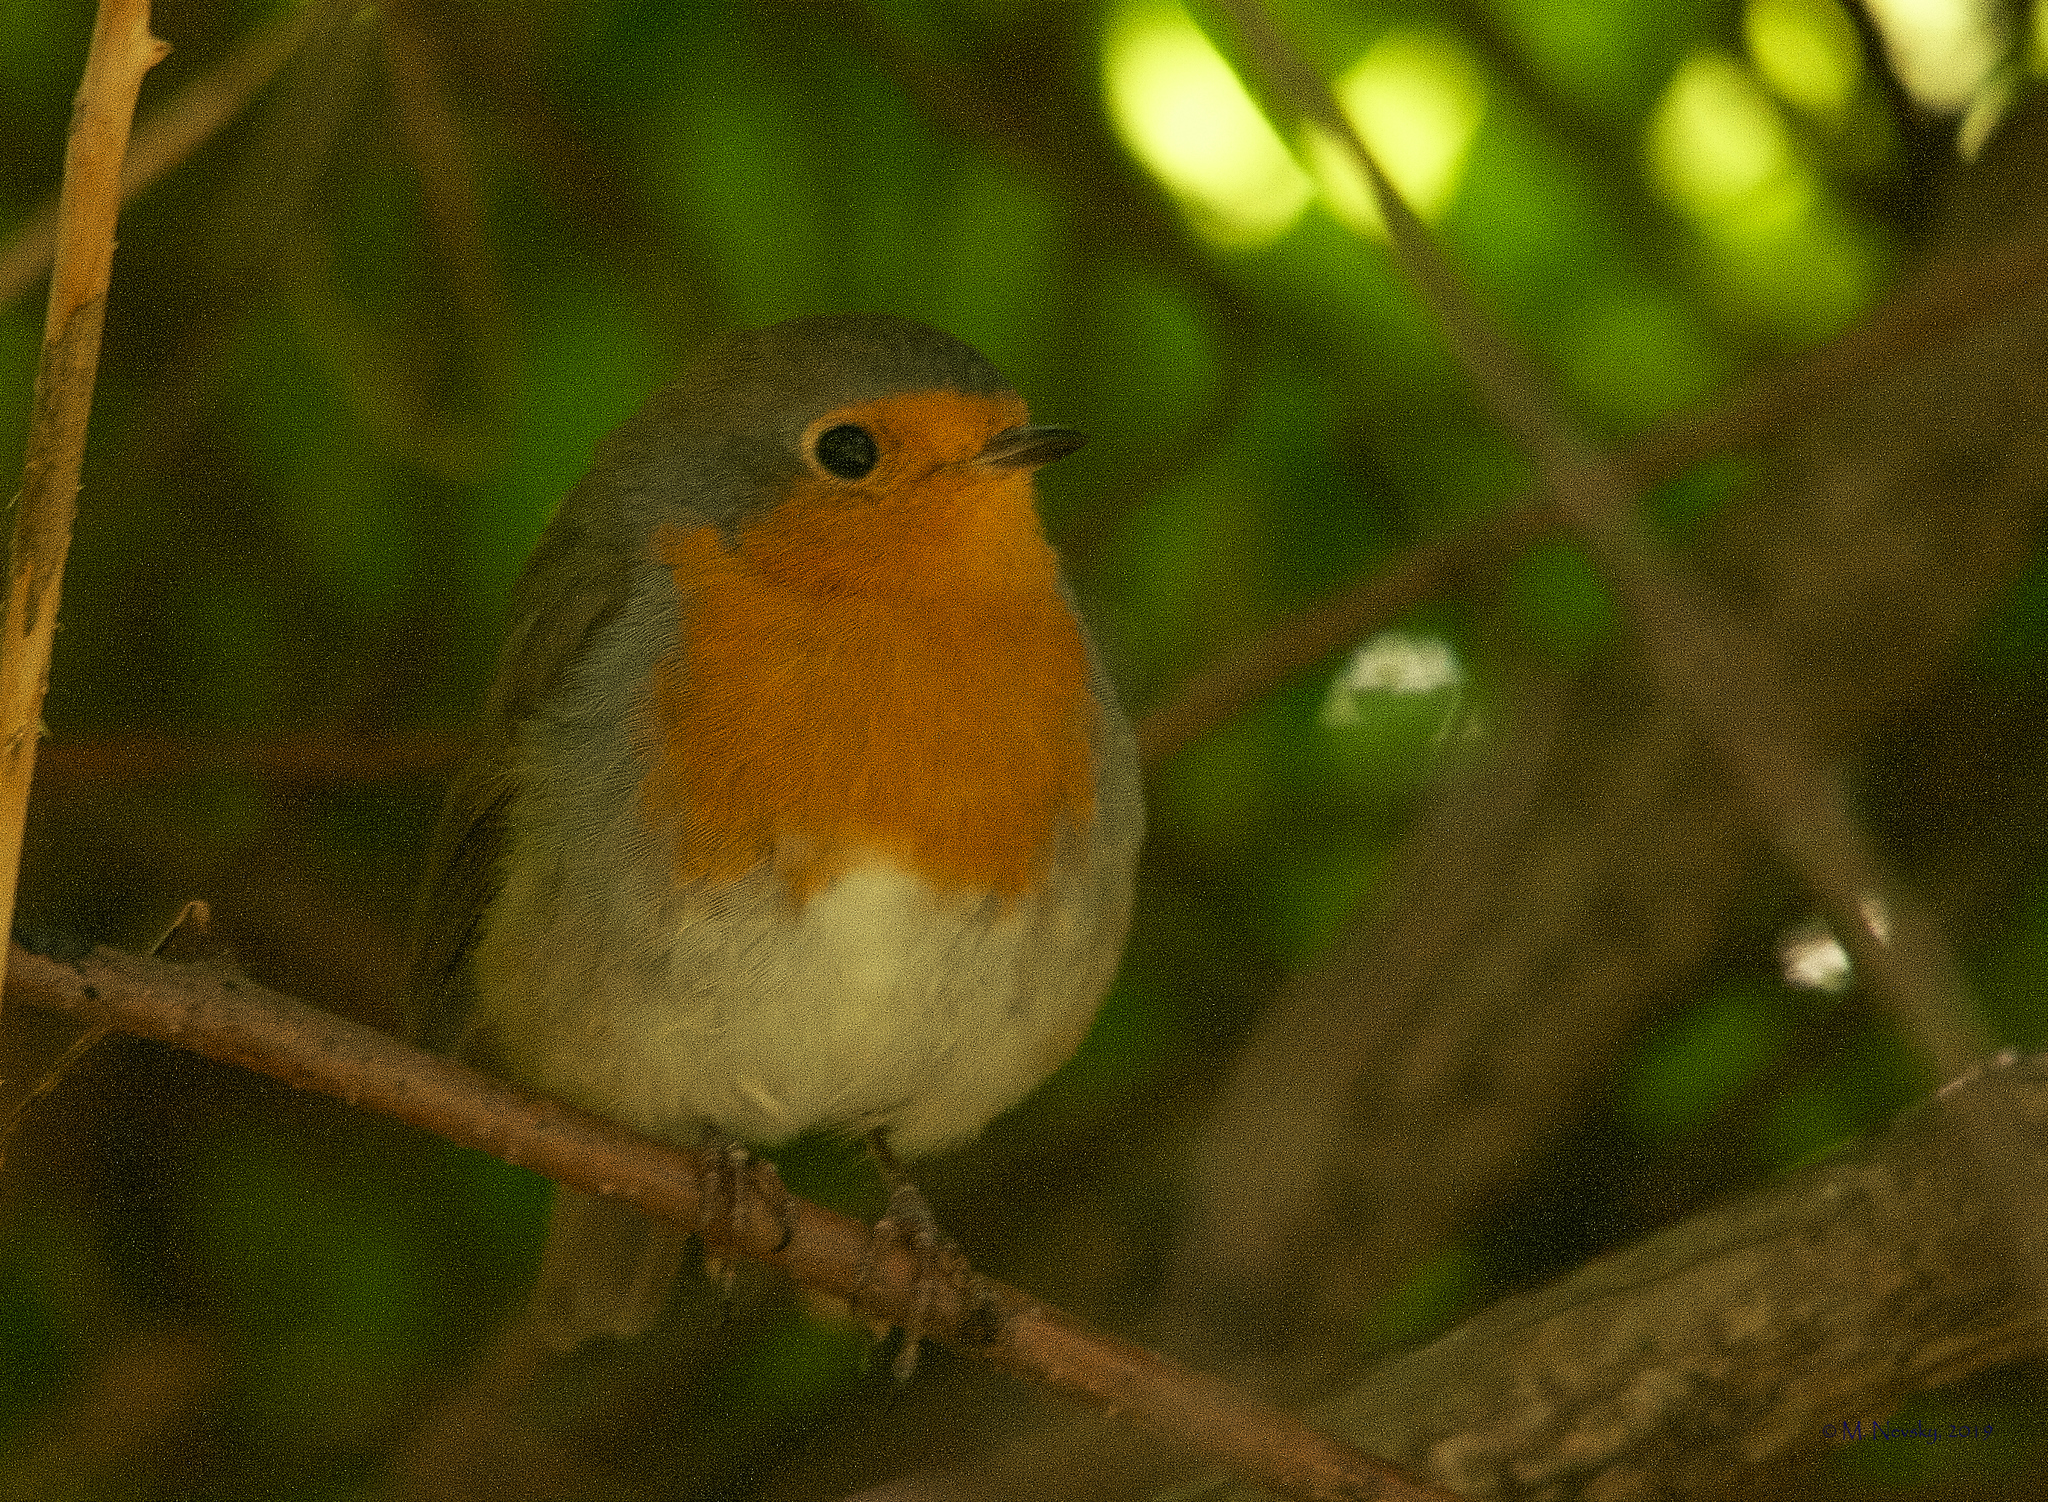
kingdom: Animalia
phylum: Chordata
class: Aves
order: Passeriformes
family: Muscicapidae
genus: Erithacus
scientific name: Erithacus rubecula
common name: European robin
